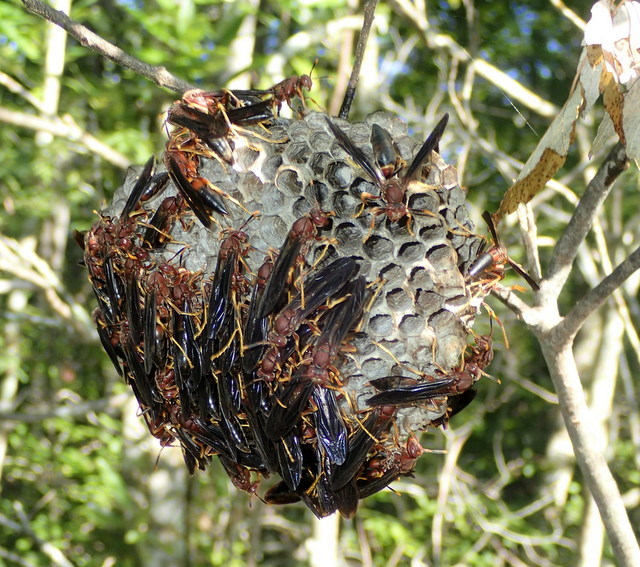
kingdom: Animalia
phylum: Arthropoda
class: Insecta
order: Hymenoptera
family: Eumenidae
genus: Polistes
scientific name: Polistes annularis
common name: Ringed paper wasp
